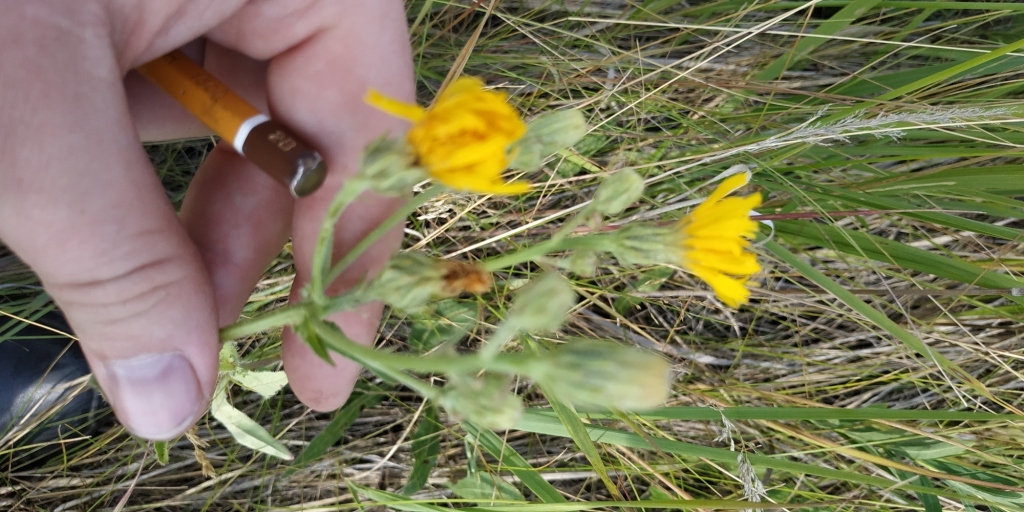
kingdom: Plantae
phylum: Tracheophyta
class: Magnoliopsida
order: Asterales
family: Asteraceae
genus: Picris
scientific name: Picris hieracioides
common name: Hawkweed oxtongue
